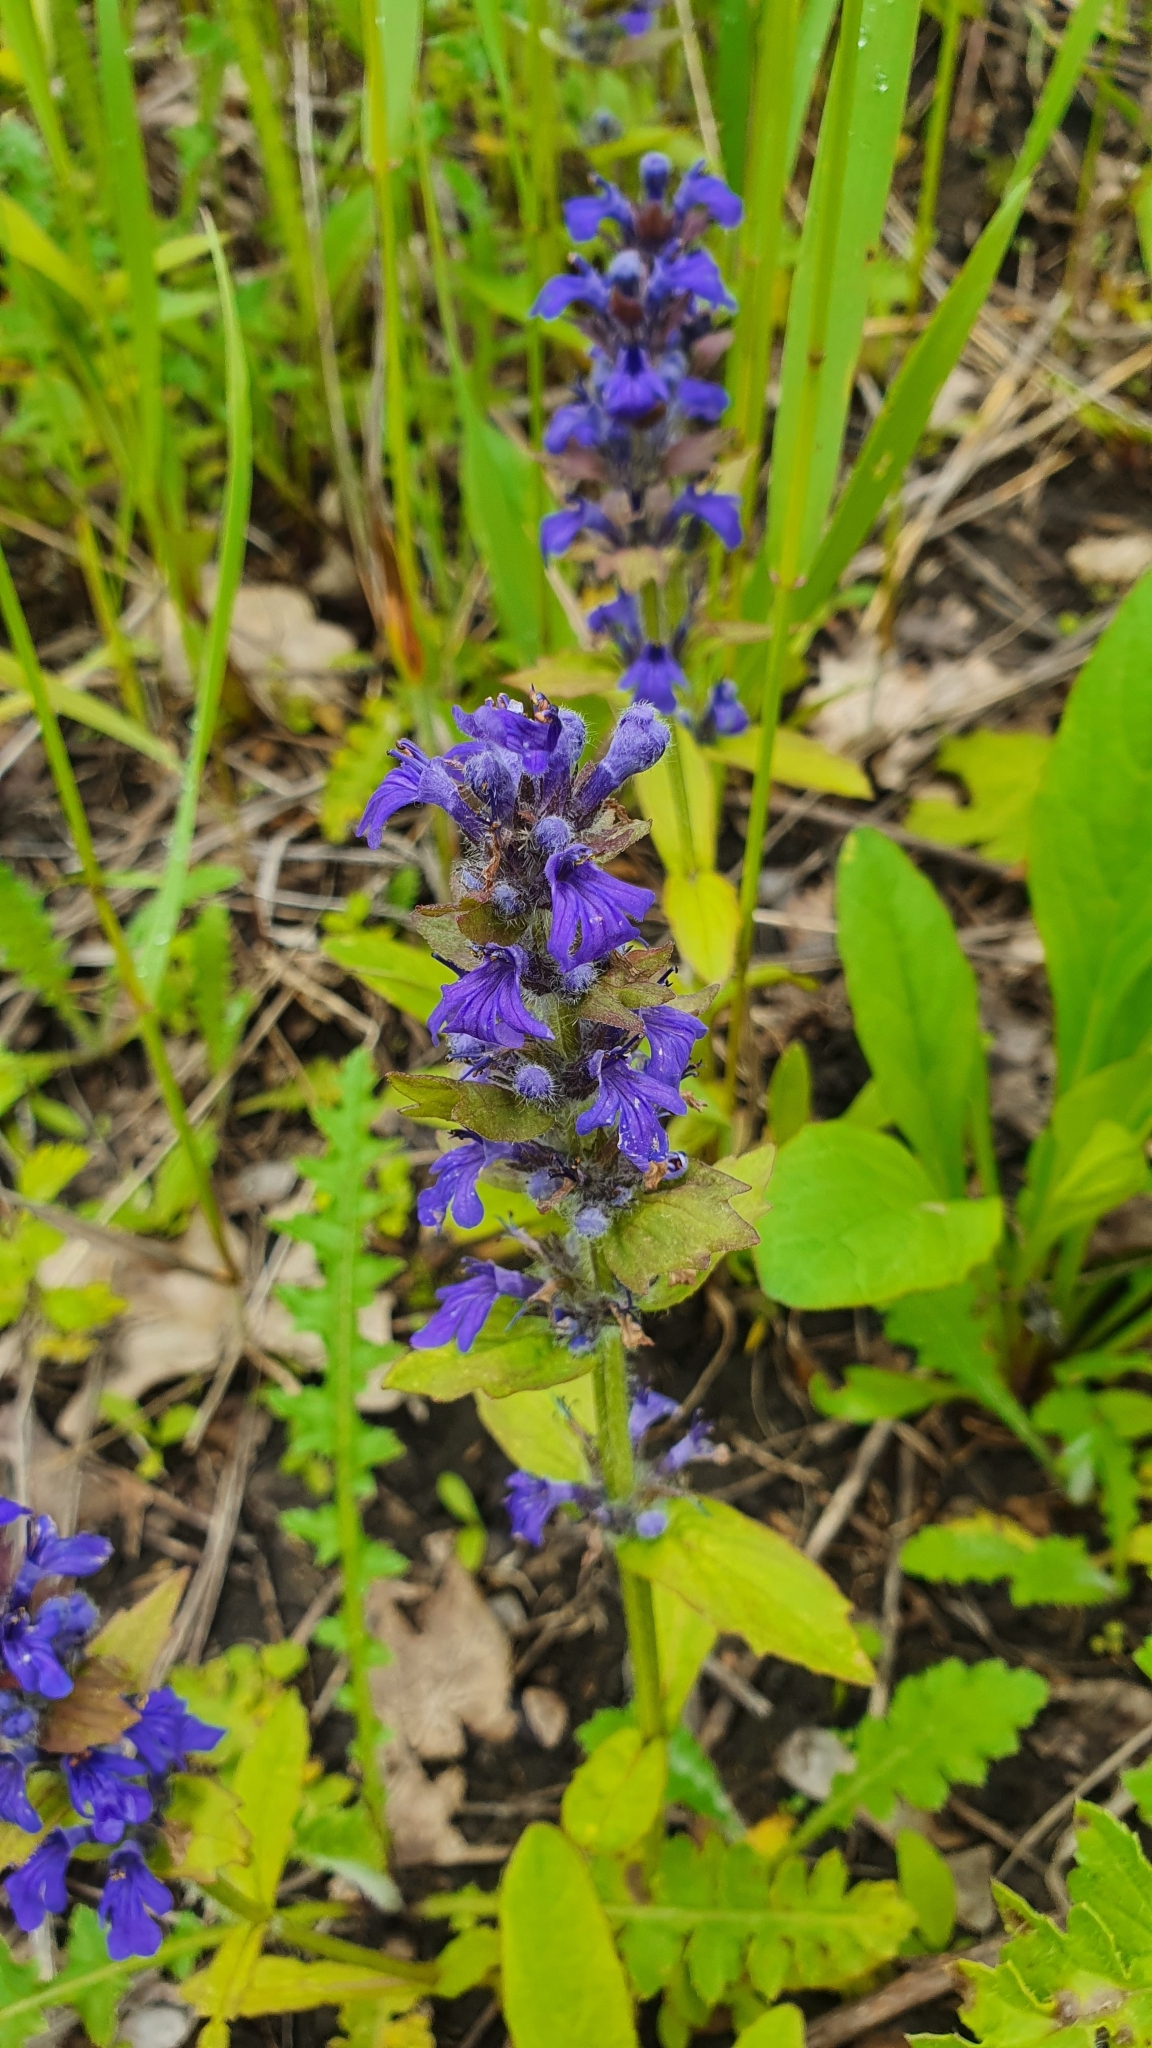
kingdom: Plantae
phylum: Tracheophyta
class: Magnoliopsida
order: Lamiales
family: Lamiaceae
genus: Ajuga
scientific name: Ajuga genevensis
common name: Blue bugle
